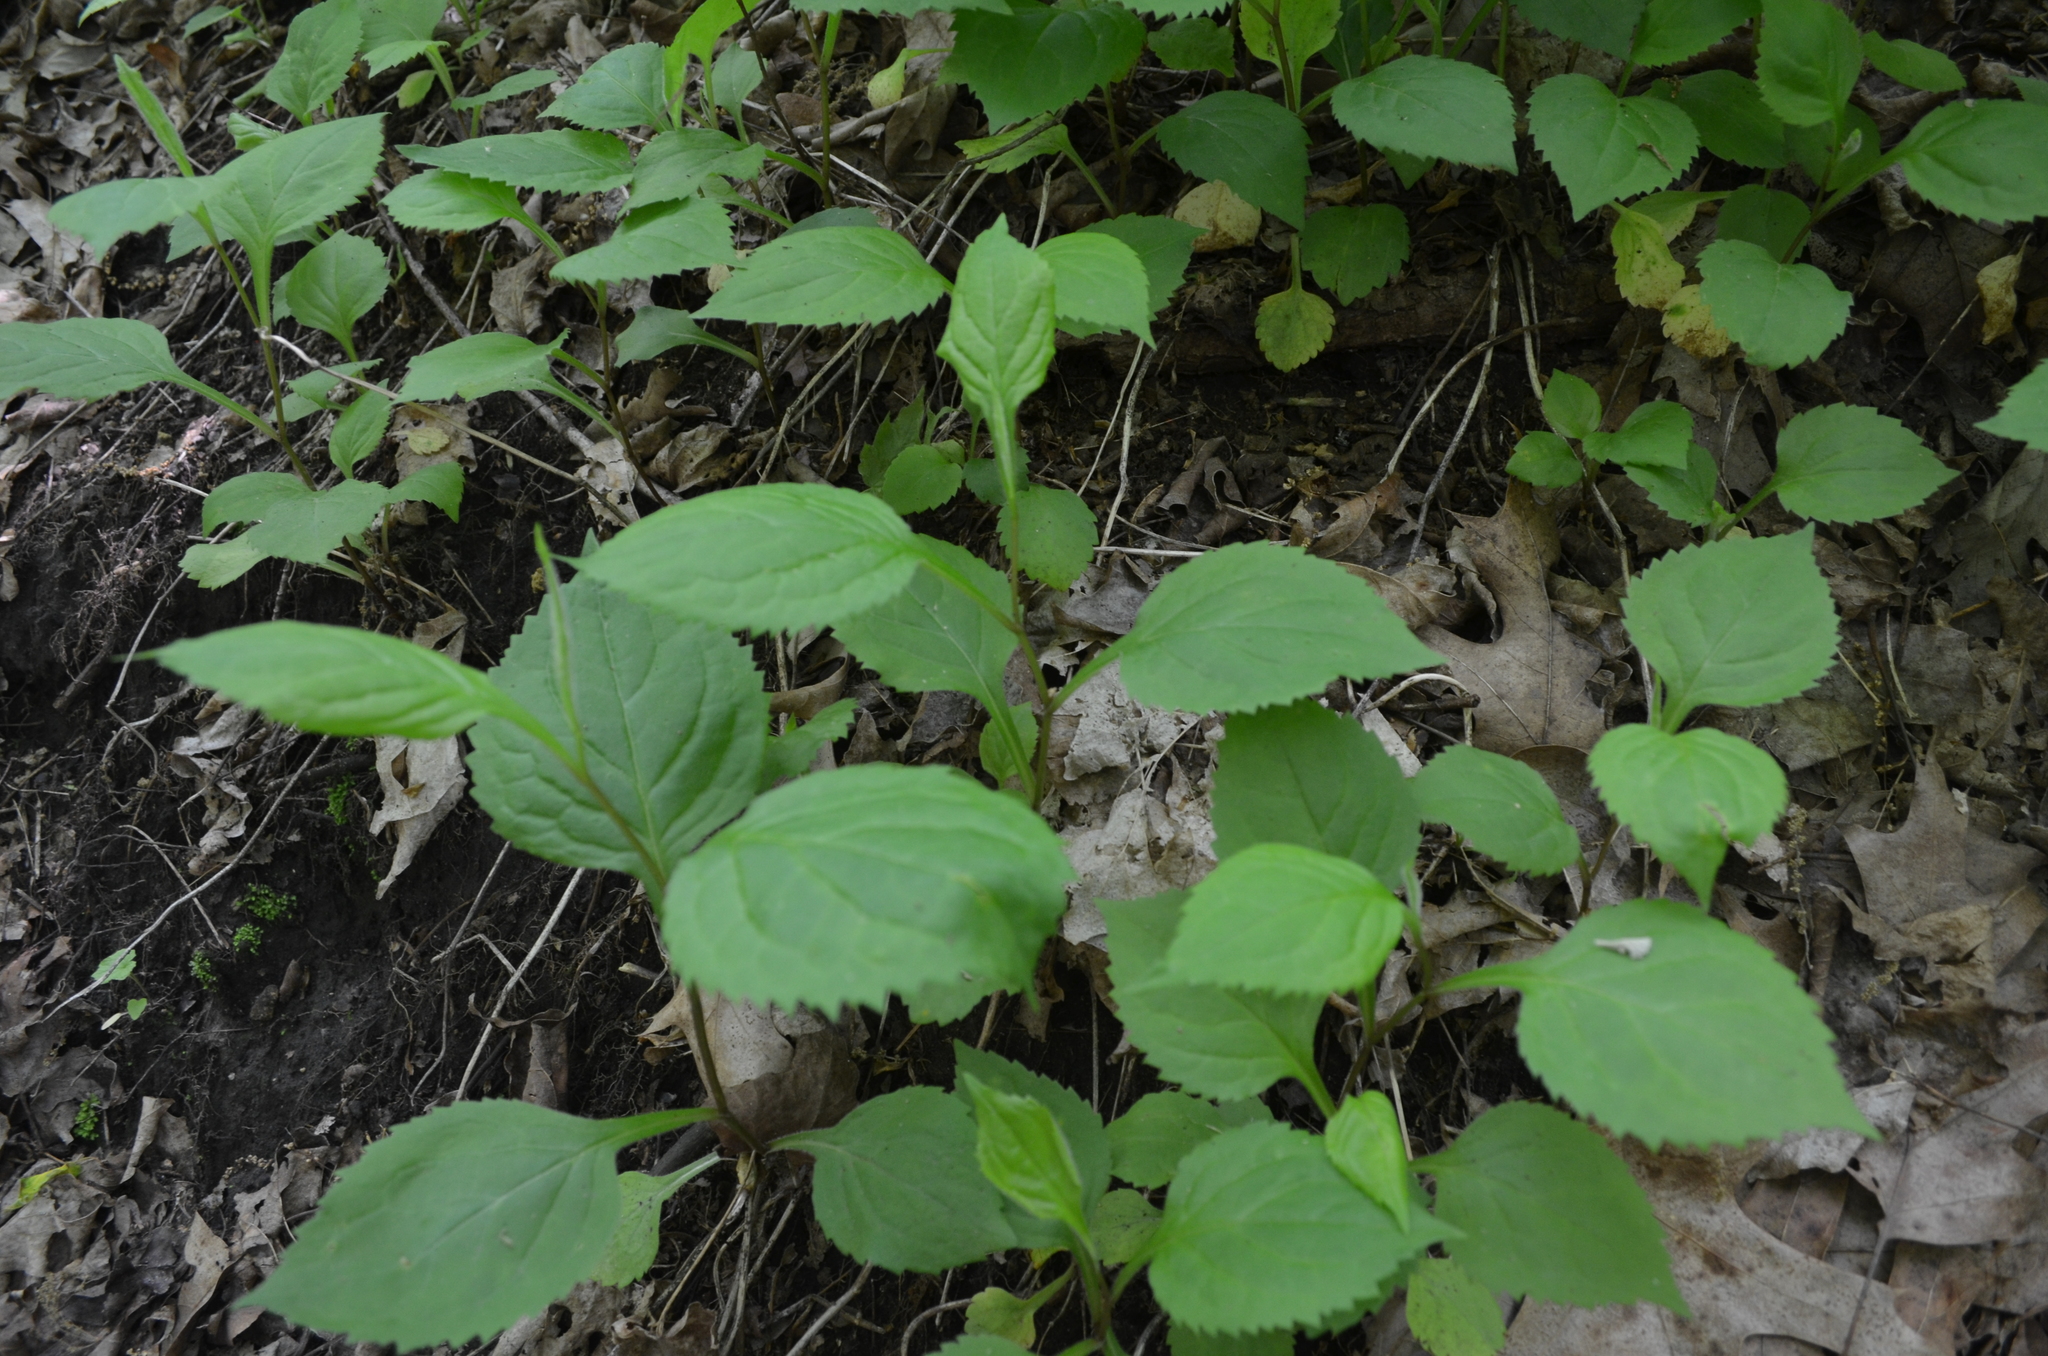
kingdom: Plantae
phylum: Tracheophyta
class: Magnoliopsida
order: Asterales
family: Asteraceae
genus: Solidago
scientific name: Solidago flexicaulis
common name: Zig-zag goldenrod
